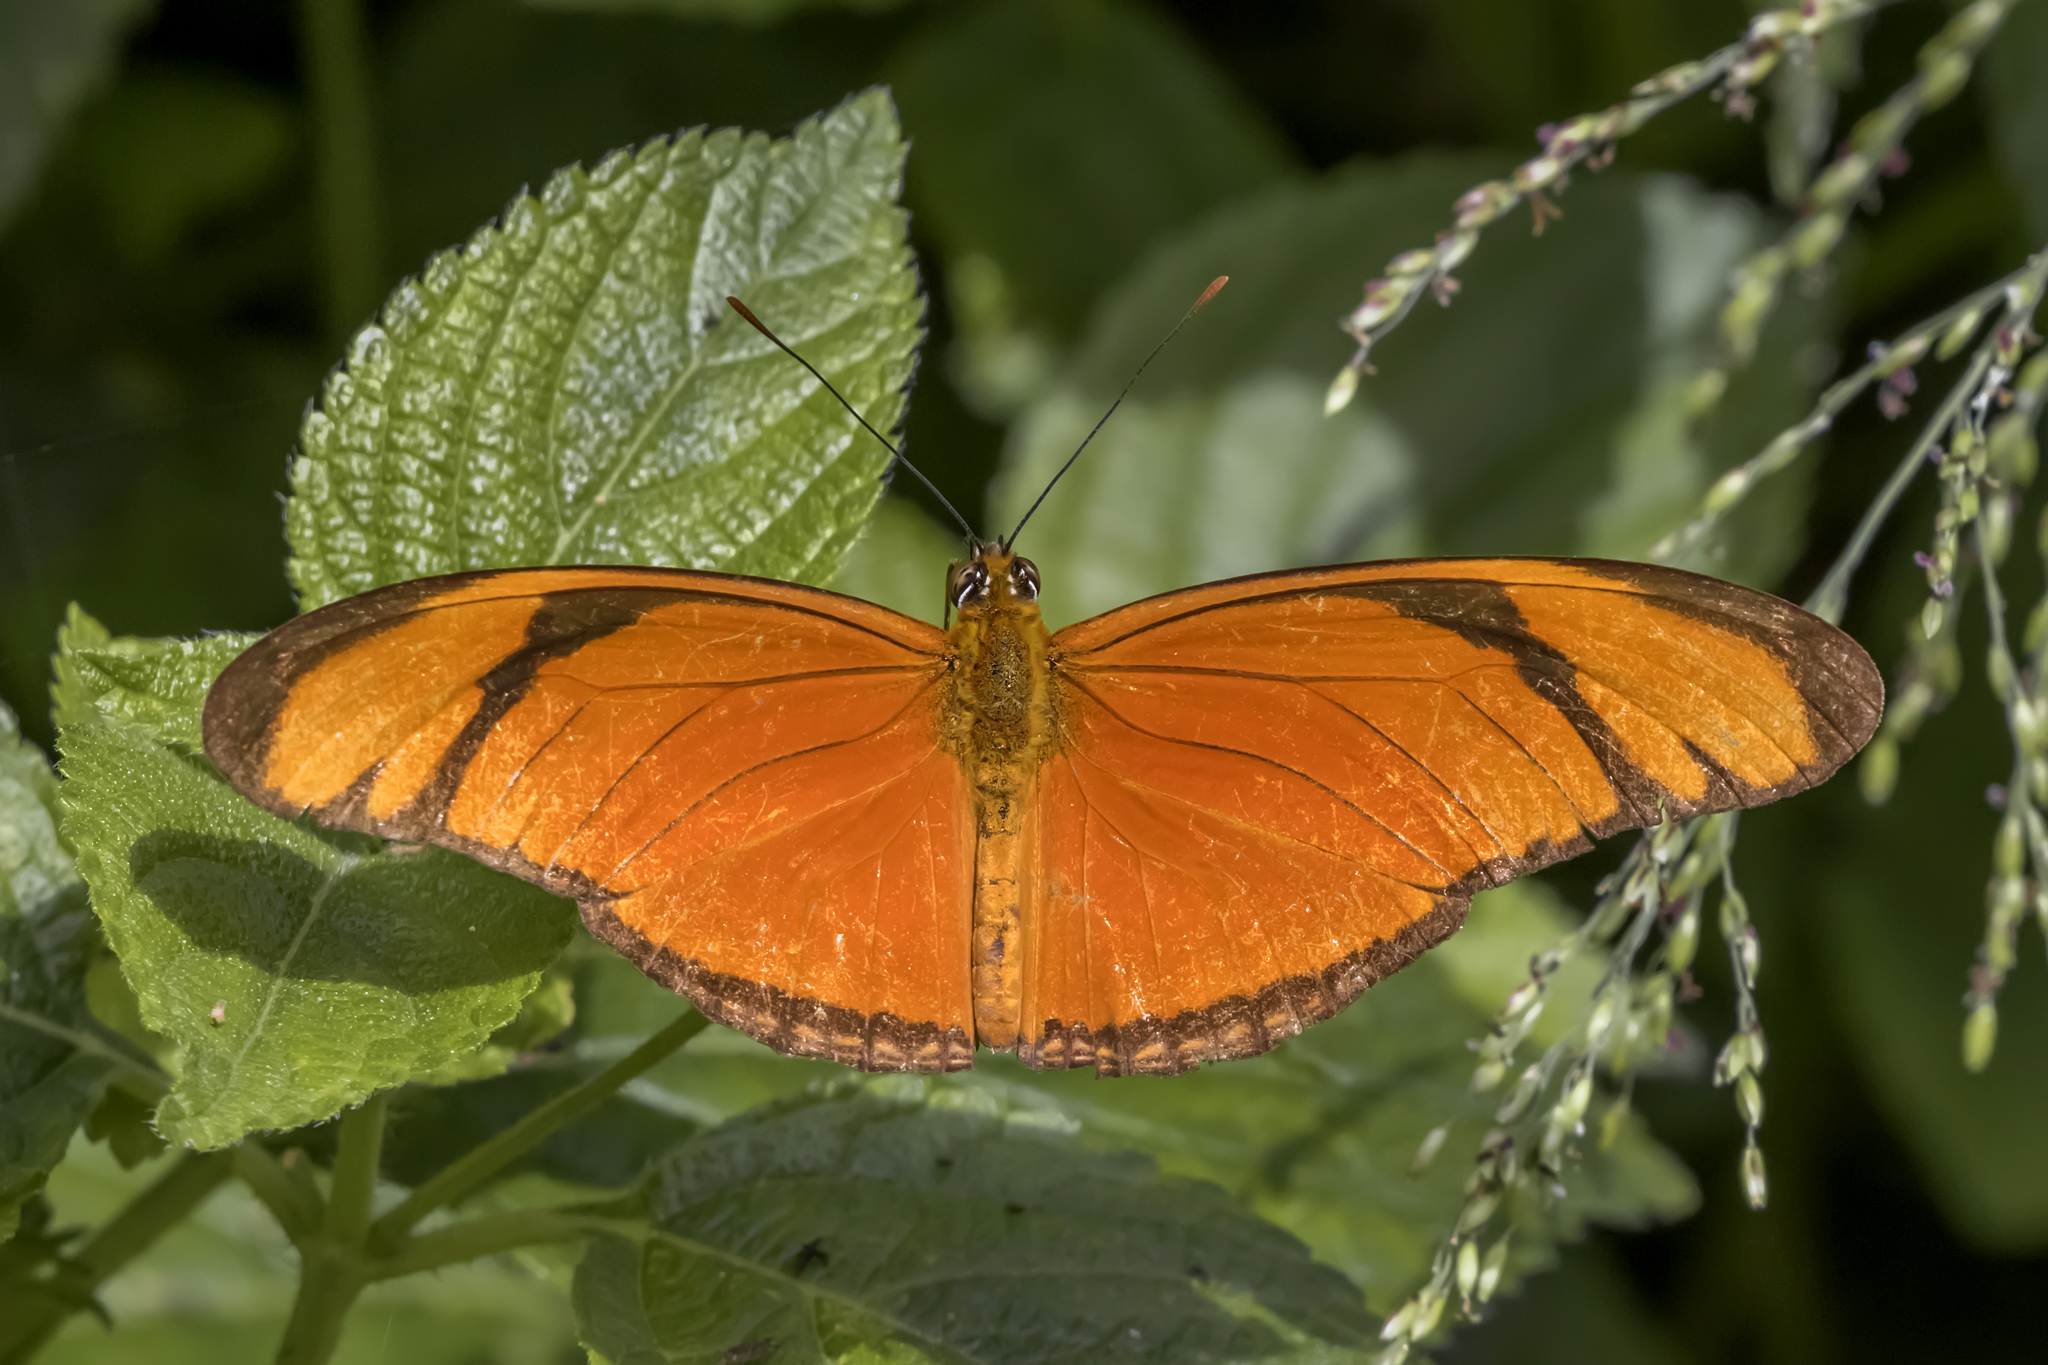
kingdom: Animalia
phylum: Arthropoda
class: Insecta
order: Lepidoptera
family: Nymphalidae
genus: Dryas
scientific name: Dryas iulia
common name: Flambeau
